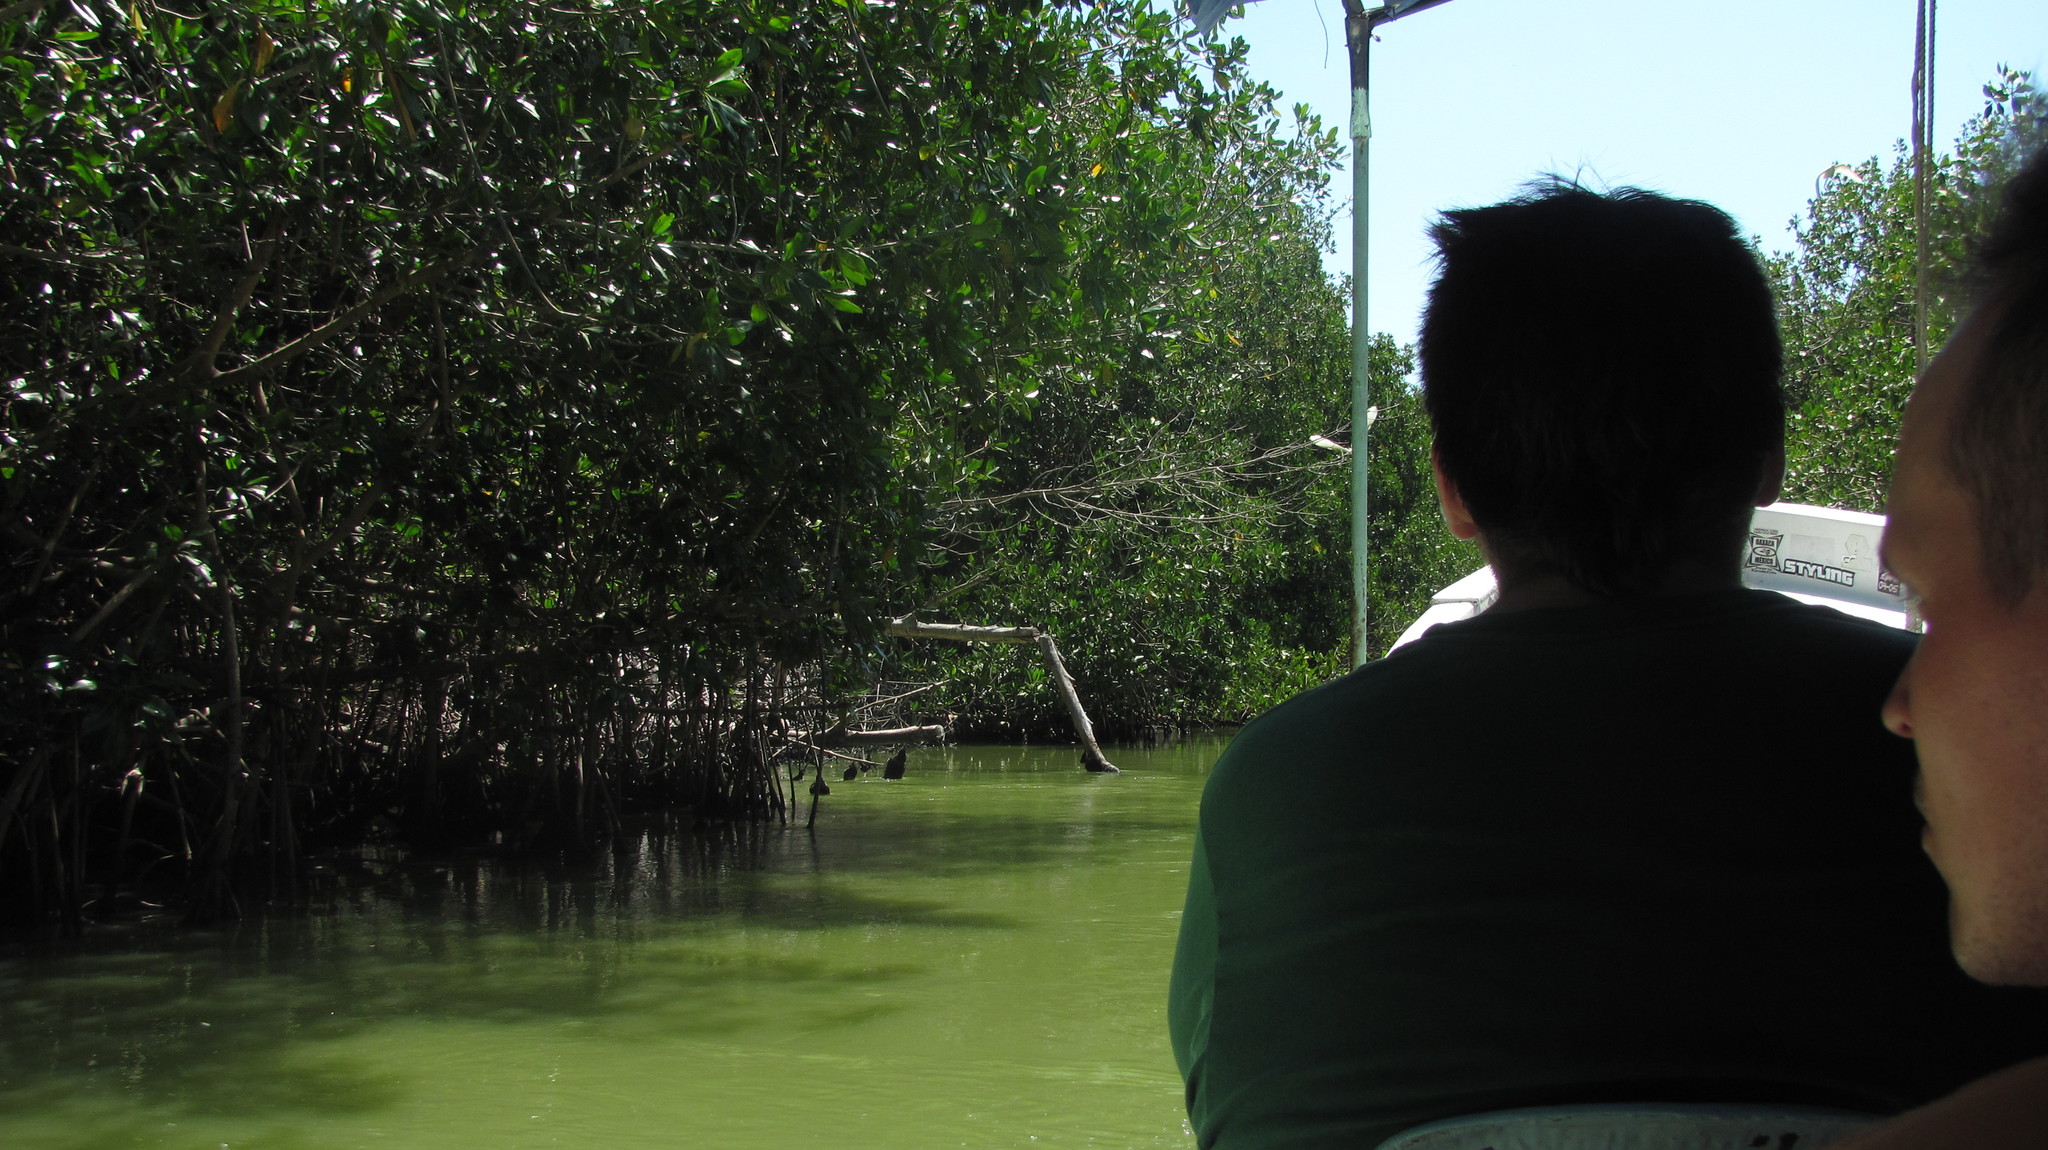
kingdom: Plantae
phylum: Tracheophyta
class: Magnoliopsida
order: Malpighiales
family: Rhizophoraceae
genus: Rhizophora
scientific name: Rhizophora mangle
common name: Red mangrove
